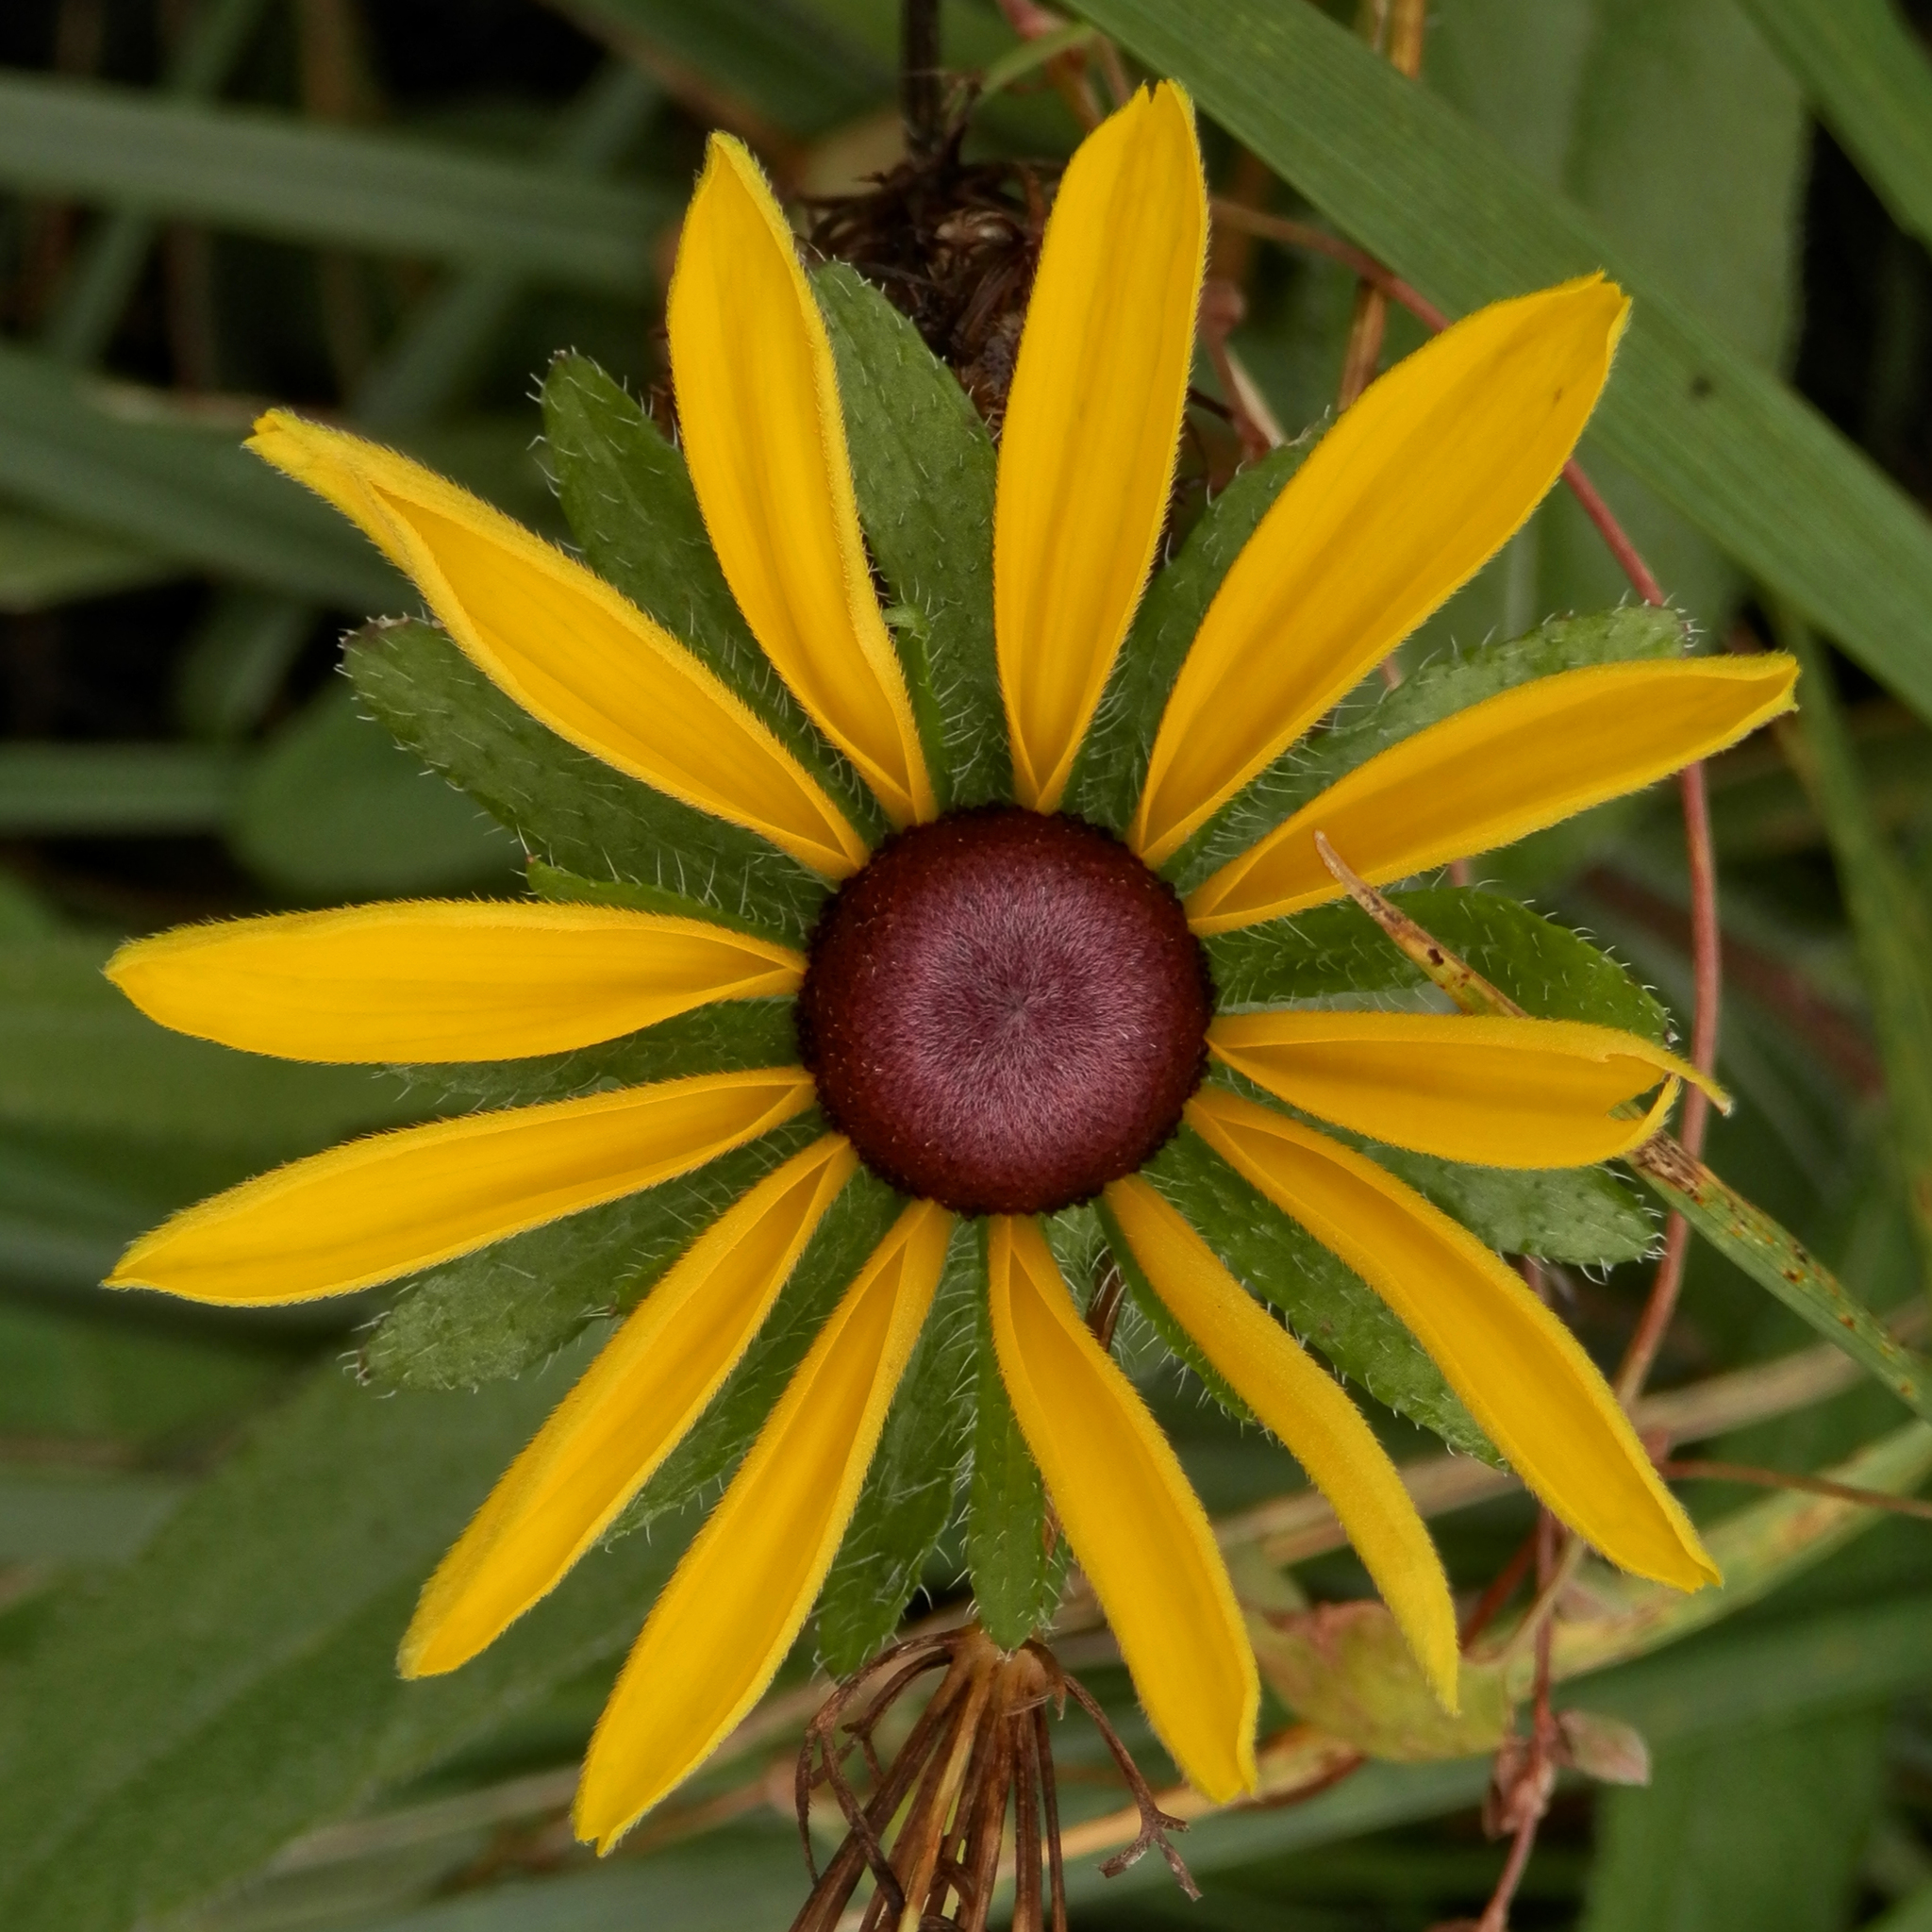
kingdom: Plantae
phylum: Tracheophyta
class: Magnoliopsida
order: Asterales
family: Asteraceae
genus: Rudbeckia
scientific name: Rudbeckia hirta
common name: Black-eyed-susan
